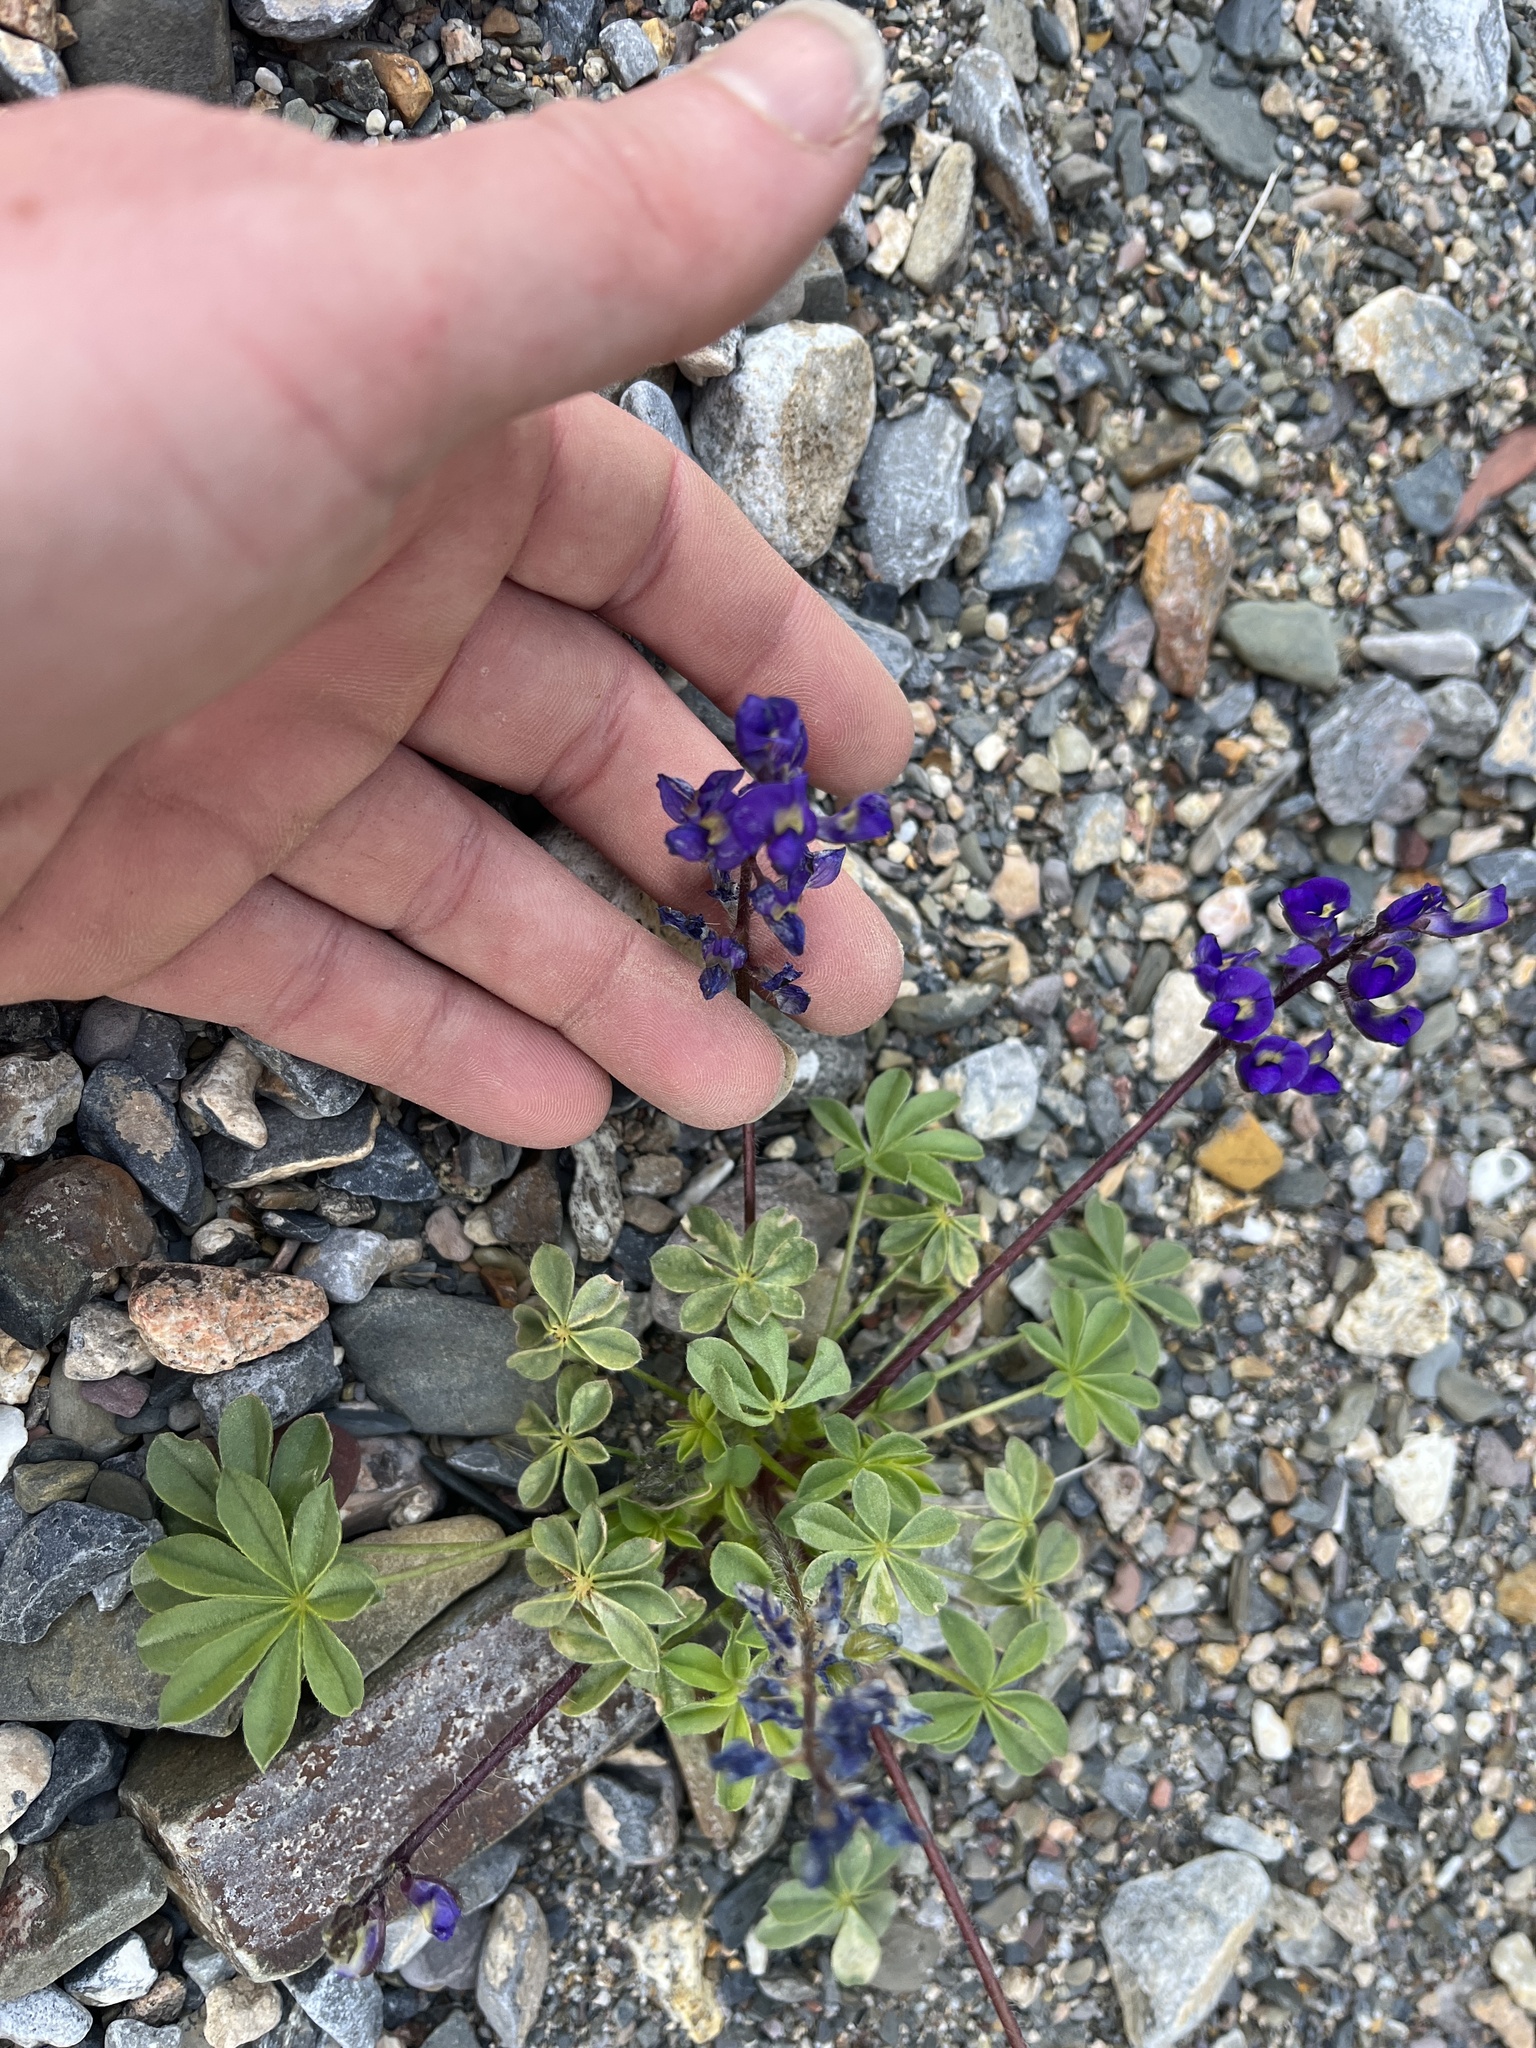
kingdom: Plantae
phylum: Tracheophyta
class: Magnoliopsida
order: Fabales
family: Fabaceae
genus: Lupinus
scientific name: Lupinus flavoculatus
